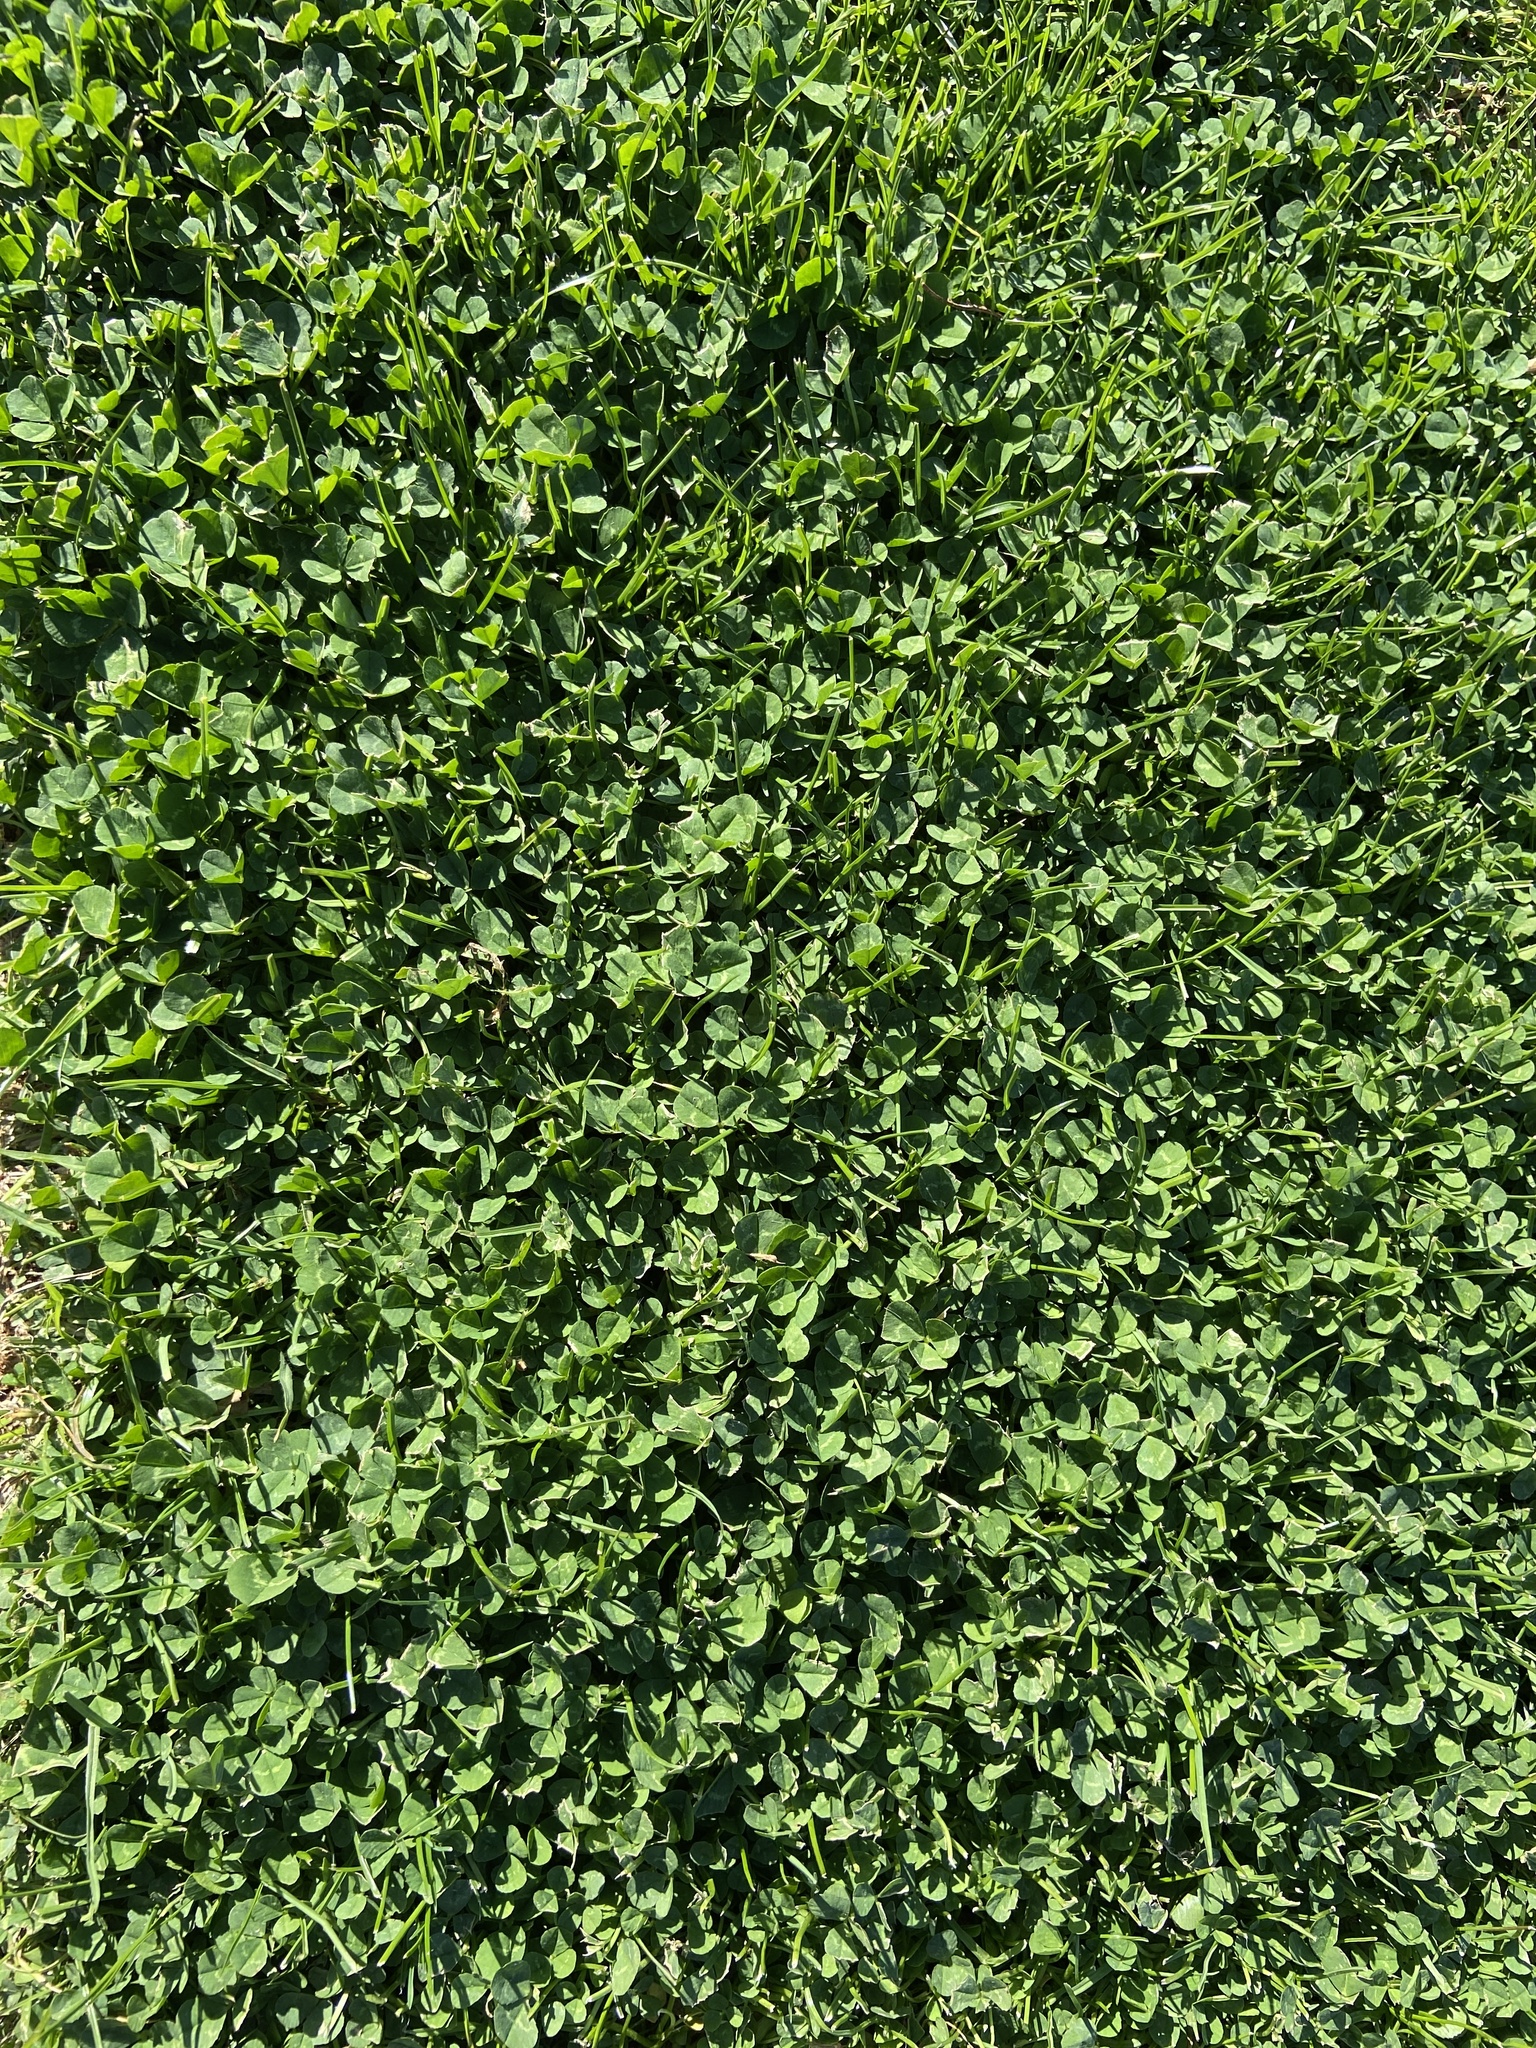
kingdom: Plantae
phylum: Tracheophyta
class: Magnoliopsida
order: Fabales
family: Fabaceae
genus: Trifolium
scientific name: Trifolium repens
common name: White clover
